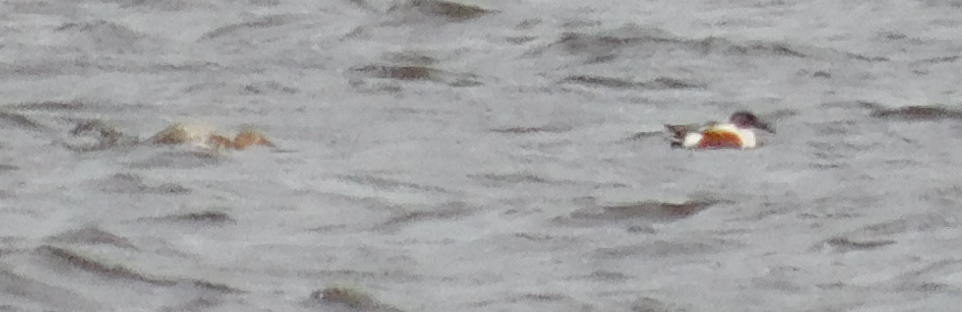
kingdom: Animalia
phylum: Chordata
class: Aves
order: Anseriformes
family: Anatidae
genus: Spatula
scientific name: Spatula clypeata
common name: Northern shoveler
